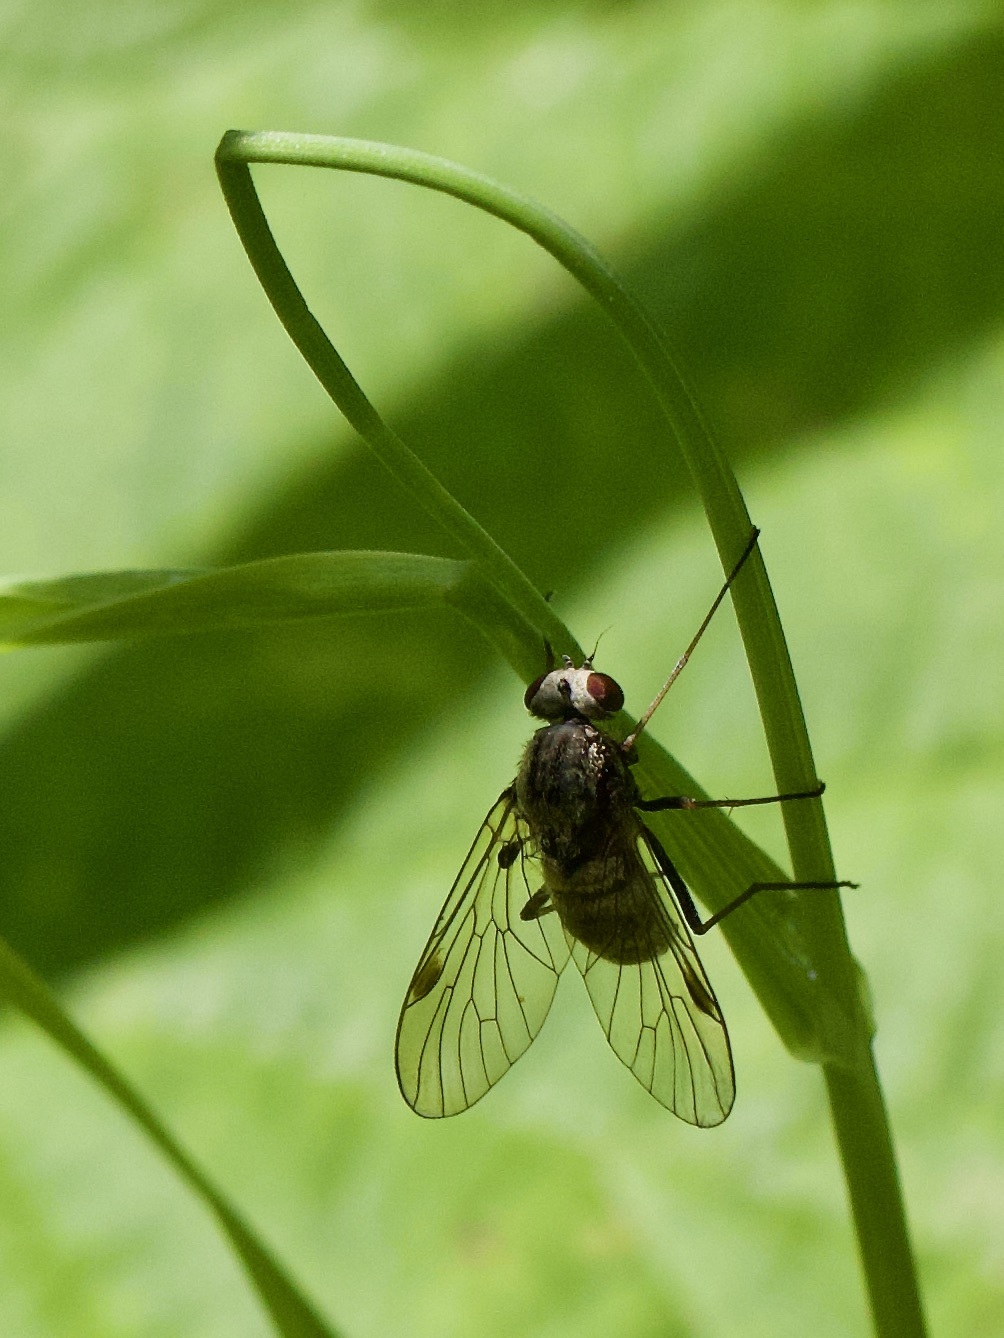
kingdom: Animalia
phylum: Arthropoda
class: Insecta
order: Diptera
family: Rhagionidae
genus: Chrysopilus
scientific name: Chrysopilus cristatus
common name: Black snipefly
